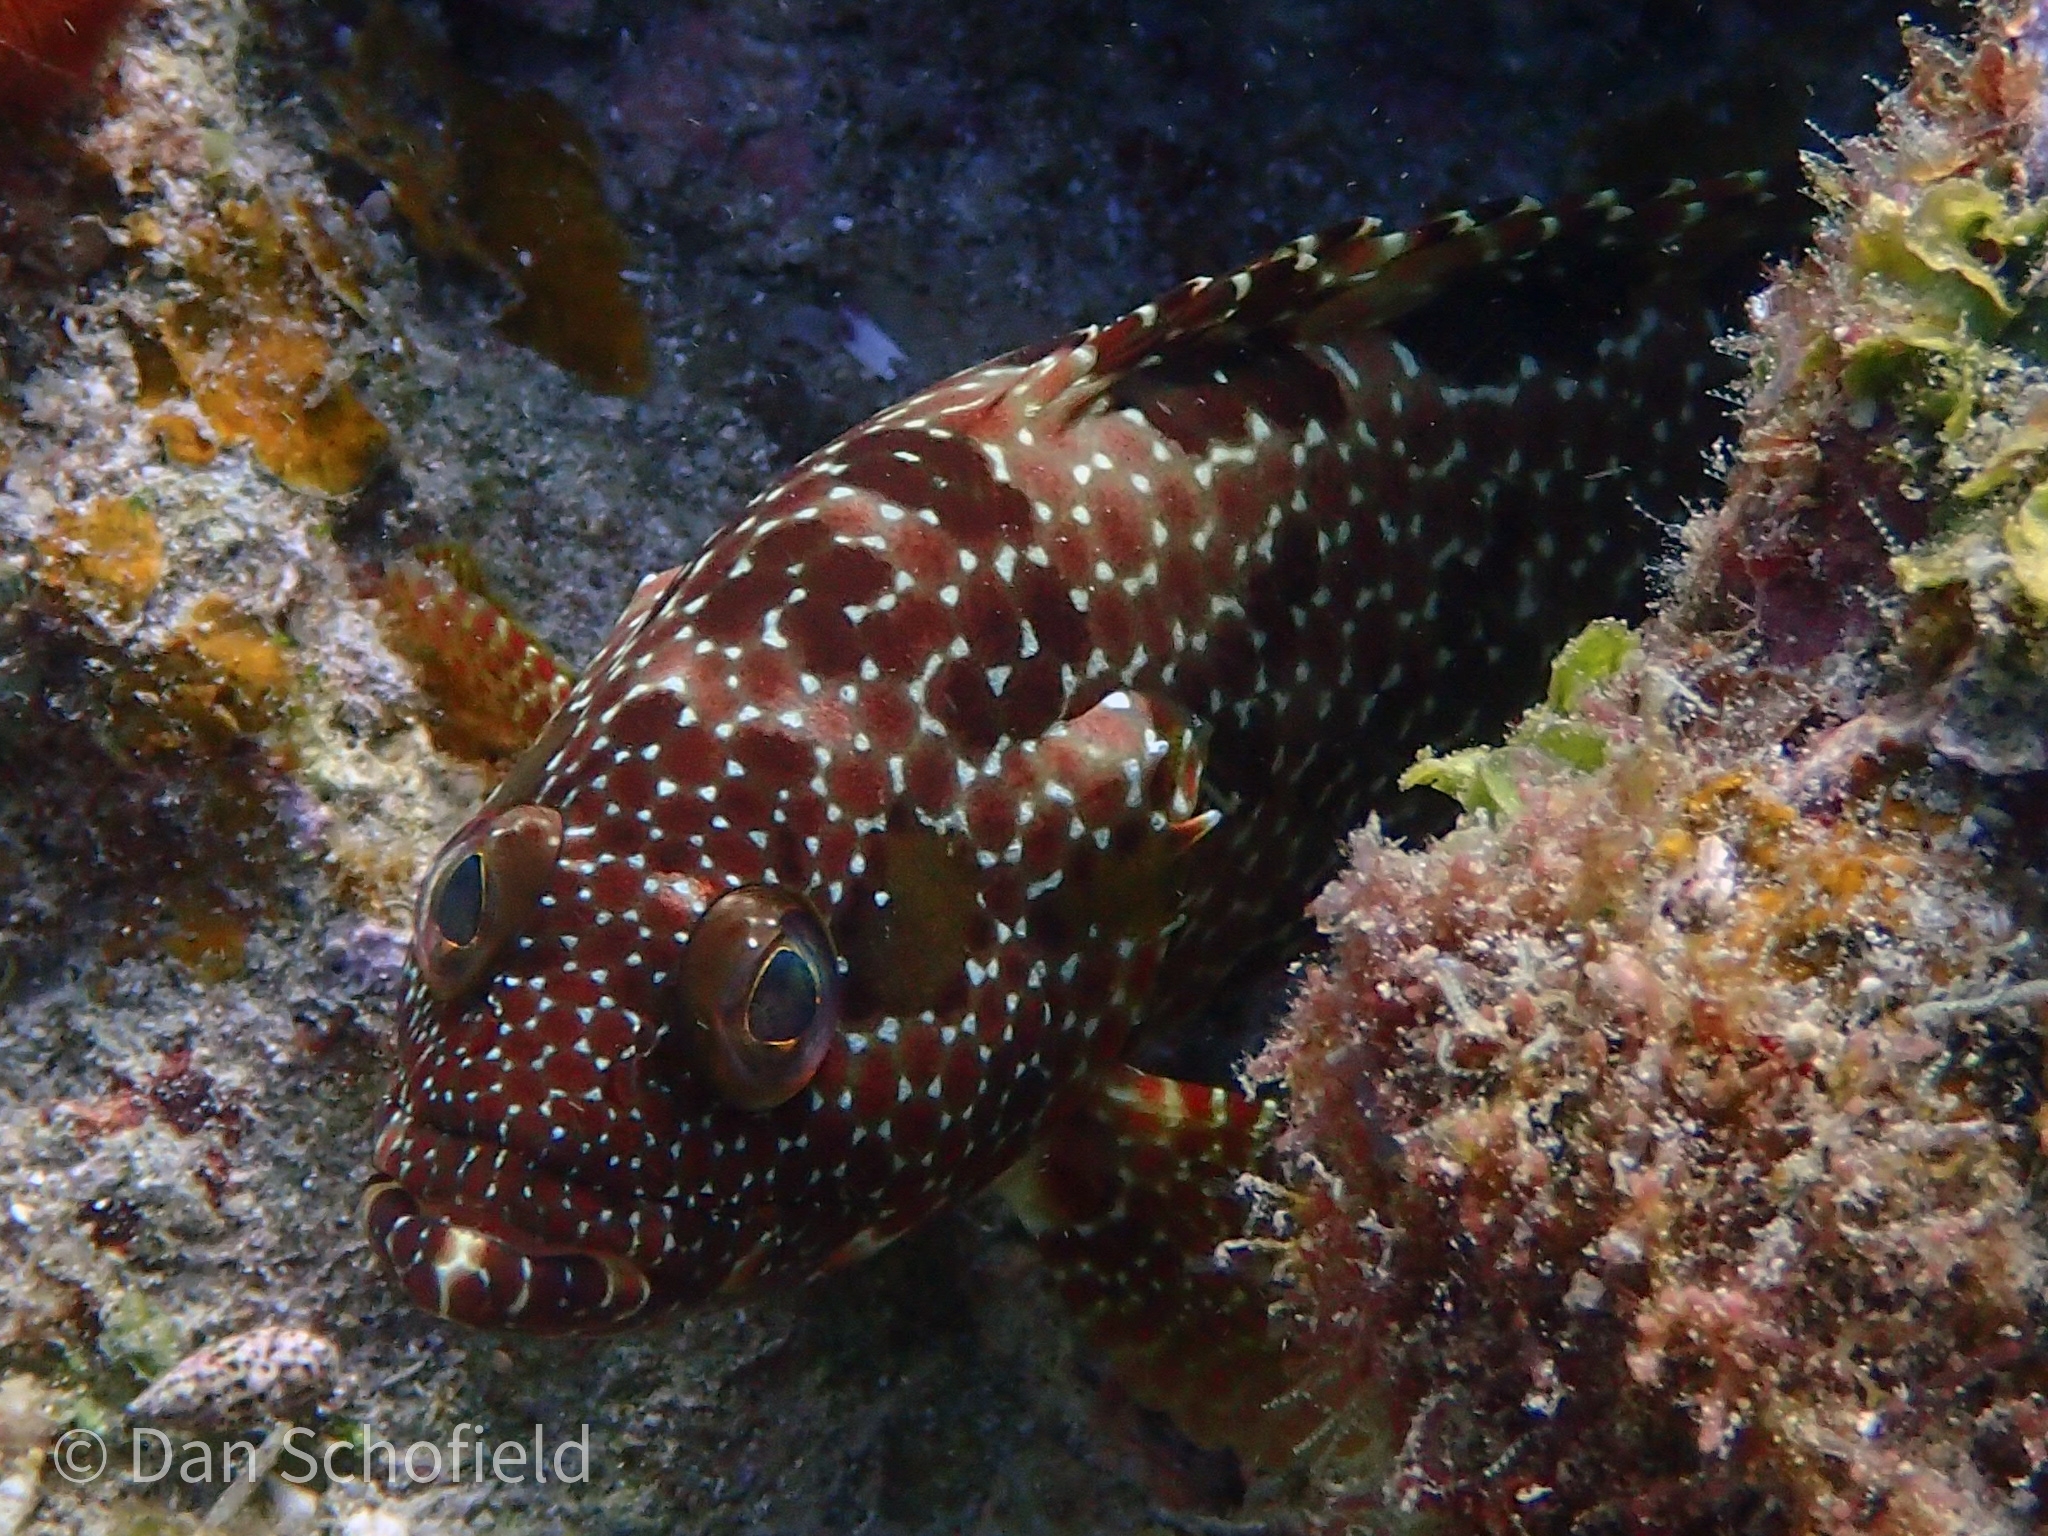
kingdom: Animalia
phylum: Chordata
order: Perciformes
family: Serranidae
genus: Epinephelus
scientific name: Epinephelus hexagonatus
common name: Hexagon grouper
